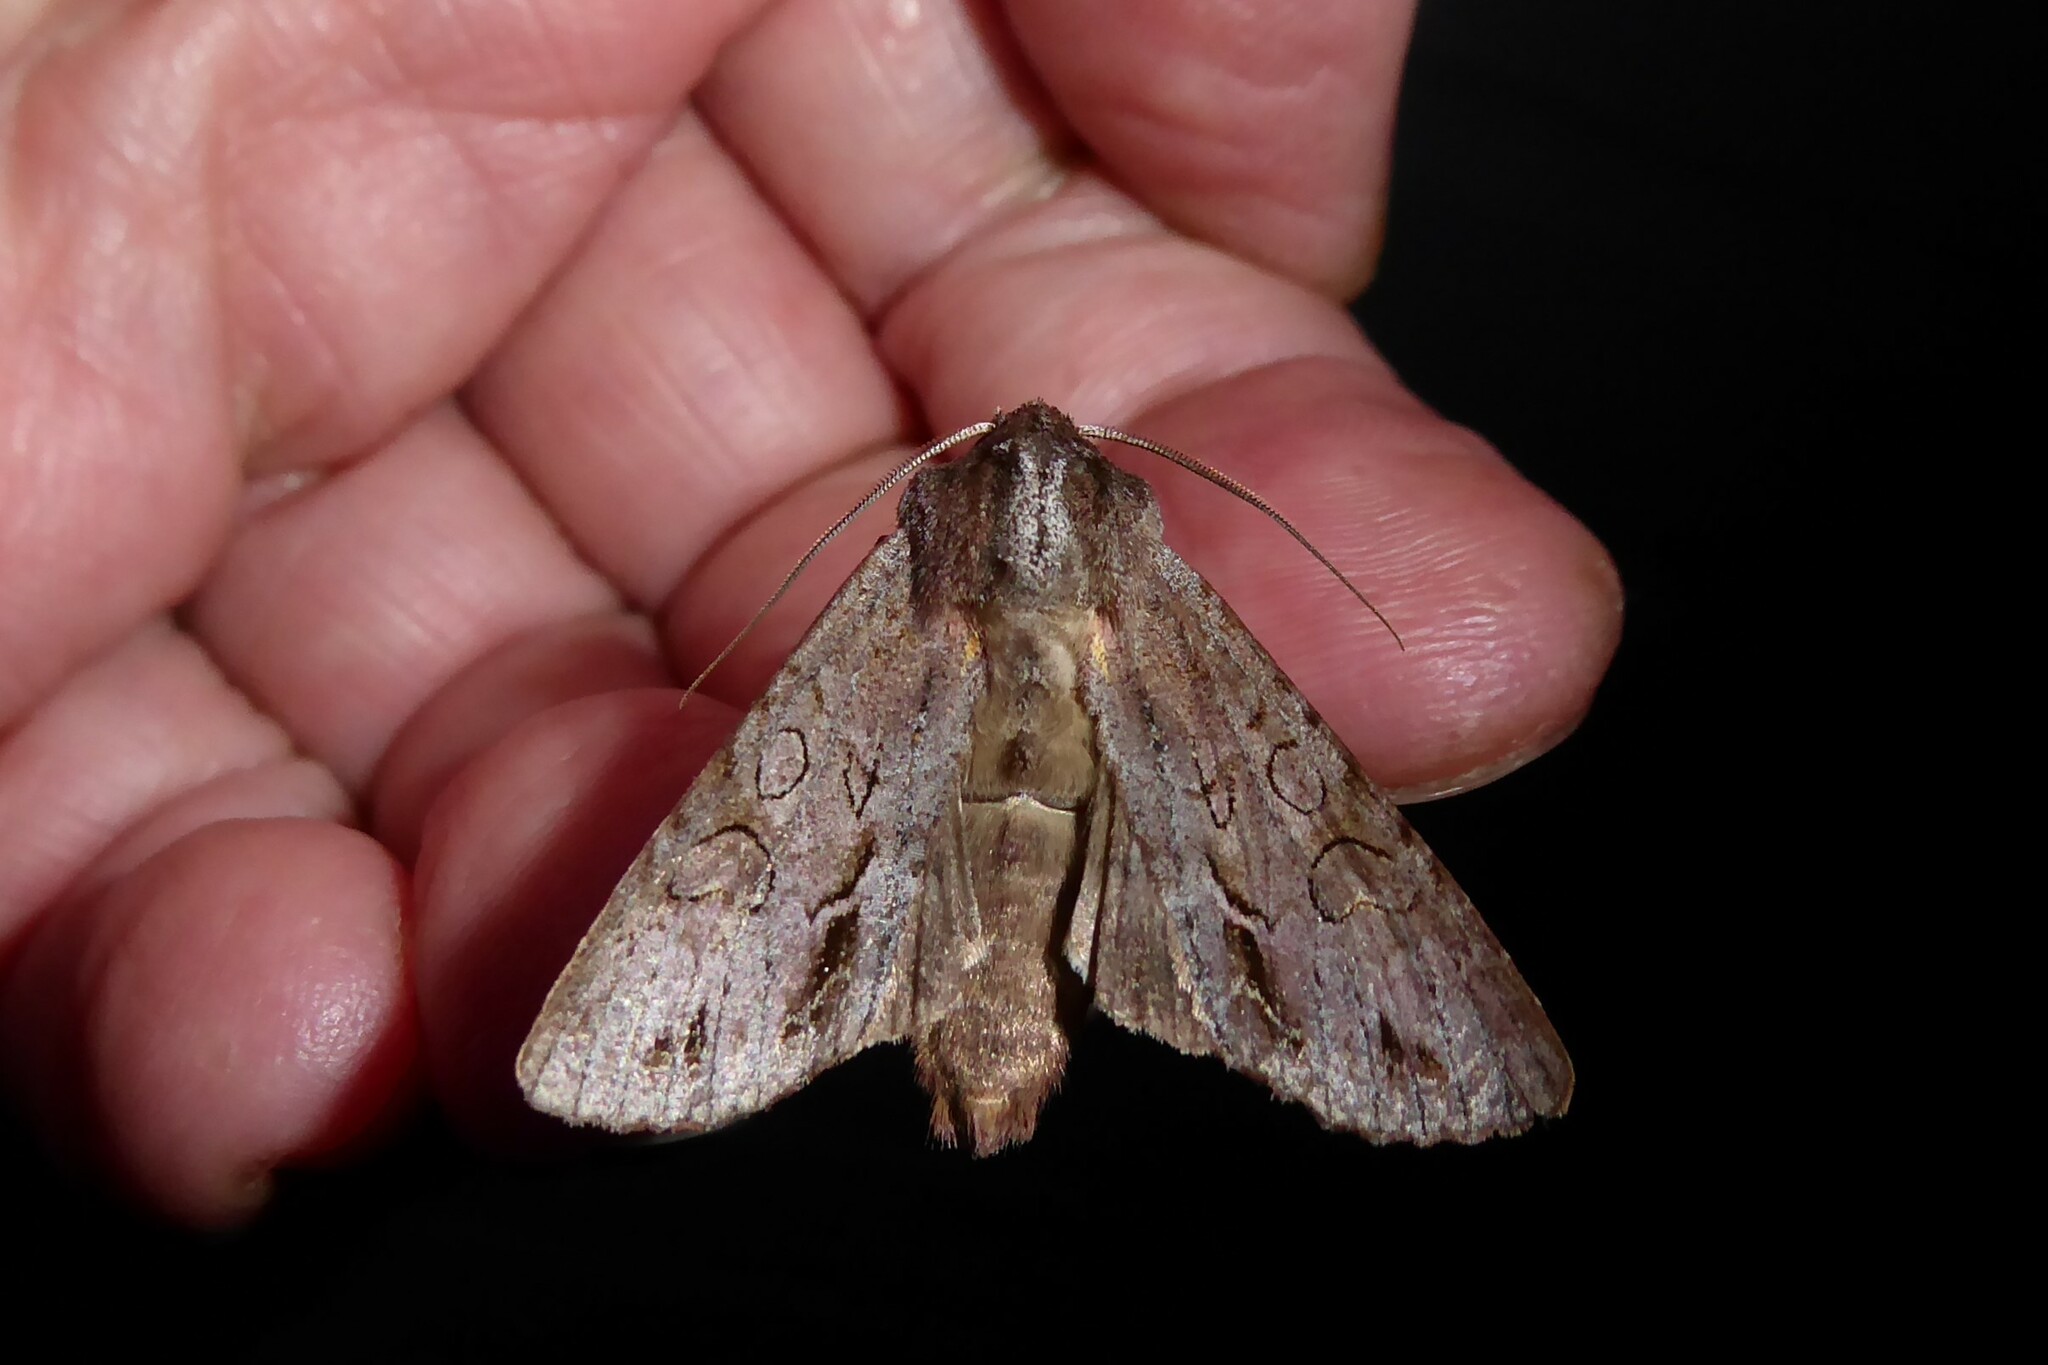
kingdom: Animalia
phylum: Arthropoda
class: Insecta
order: Lepidoptera
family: Noctuidae
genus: Ichneutica
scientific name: Ichneutica
